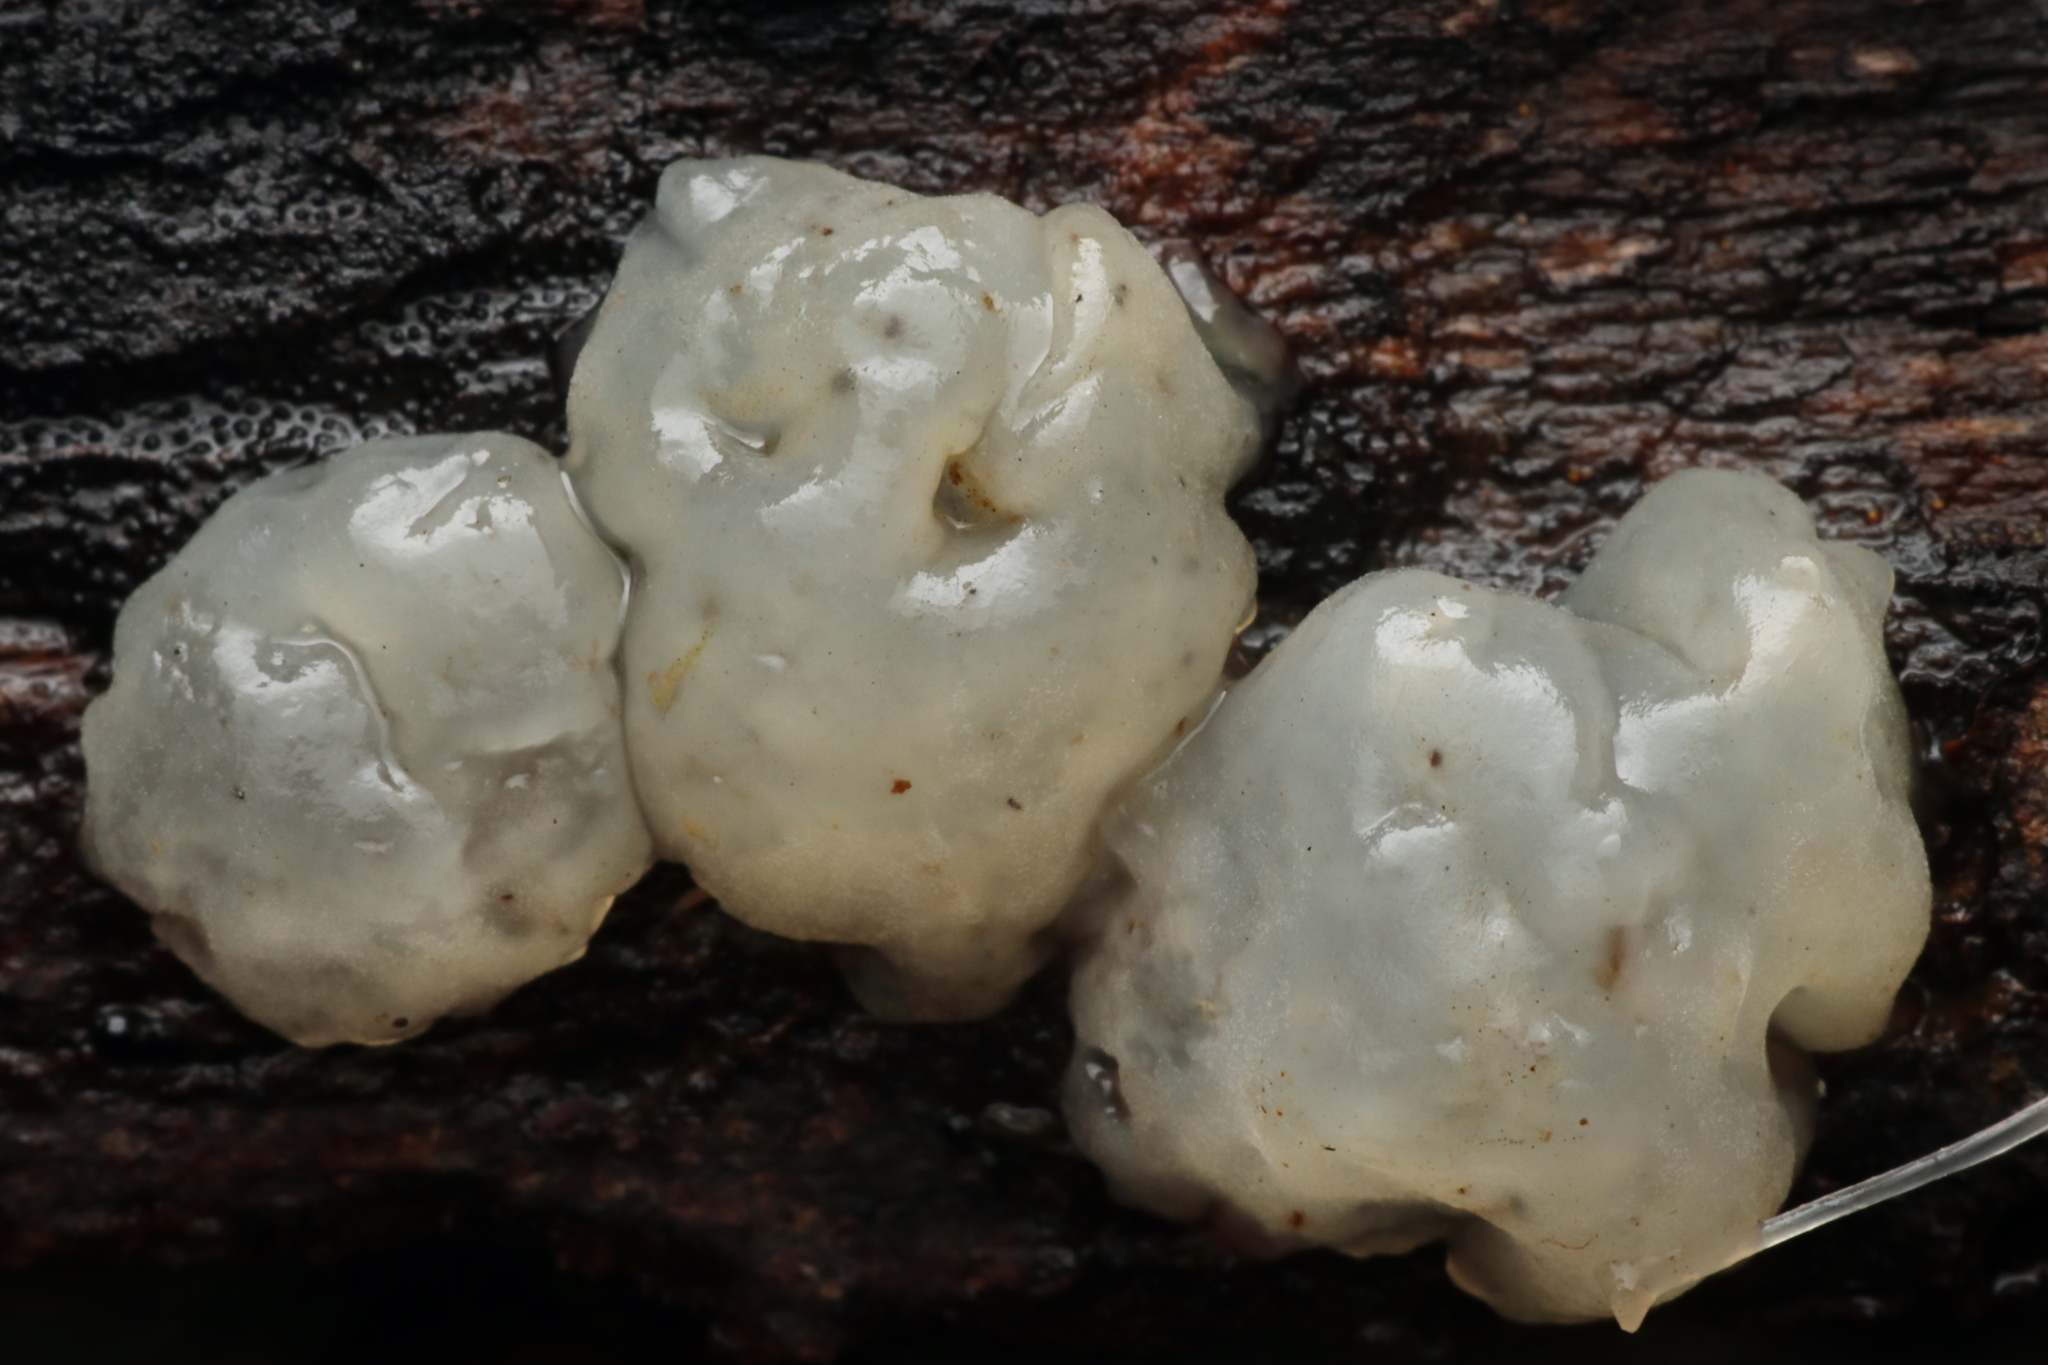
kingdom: Fungi
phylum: Basidiomycota
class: Tremellomycetes
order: Tremellales
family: Tremellaceae
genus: Tremella
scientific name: Tremella fuciformis
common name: Snow fungus
